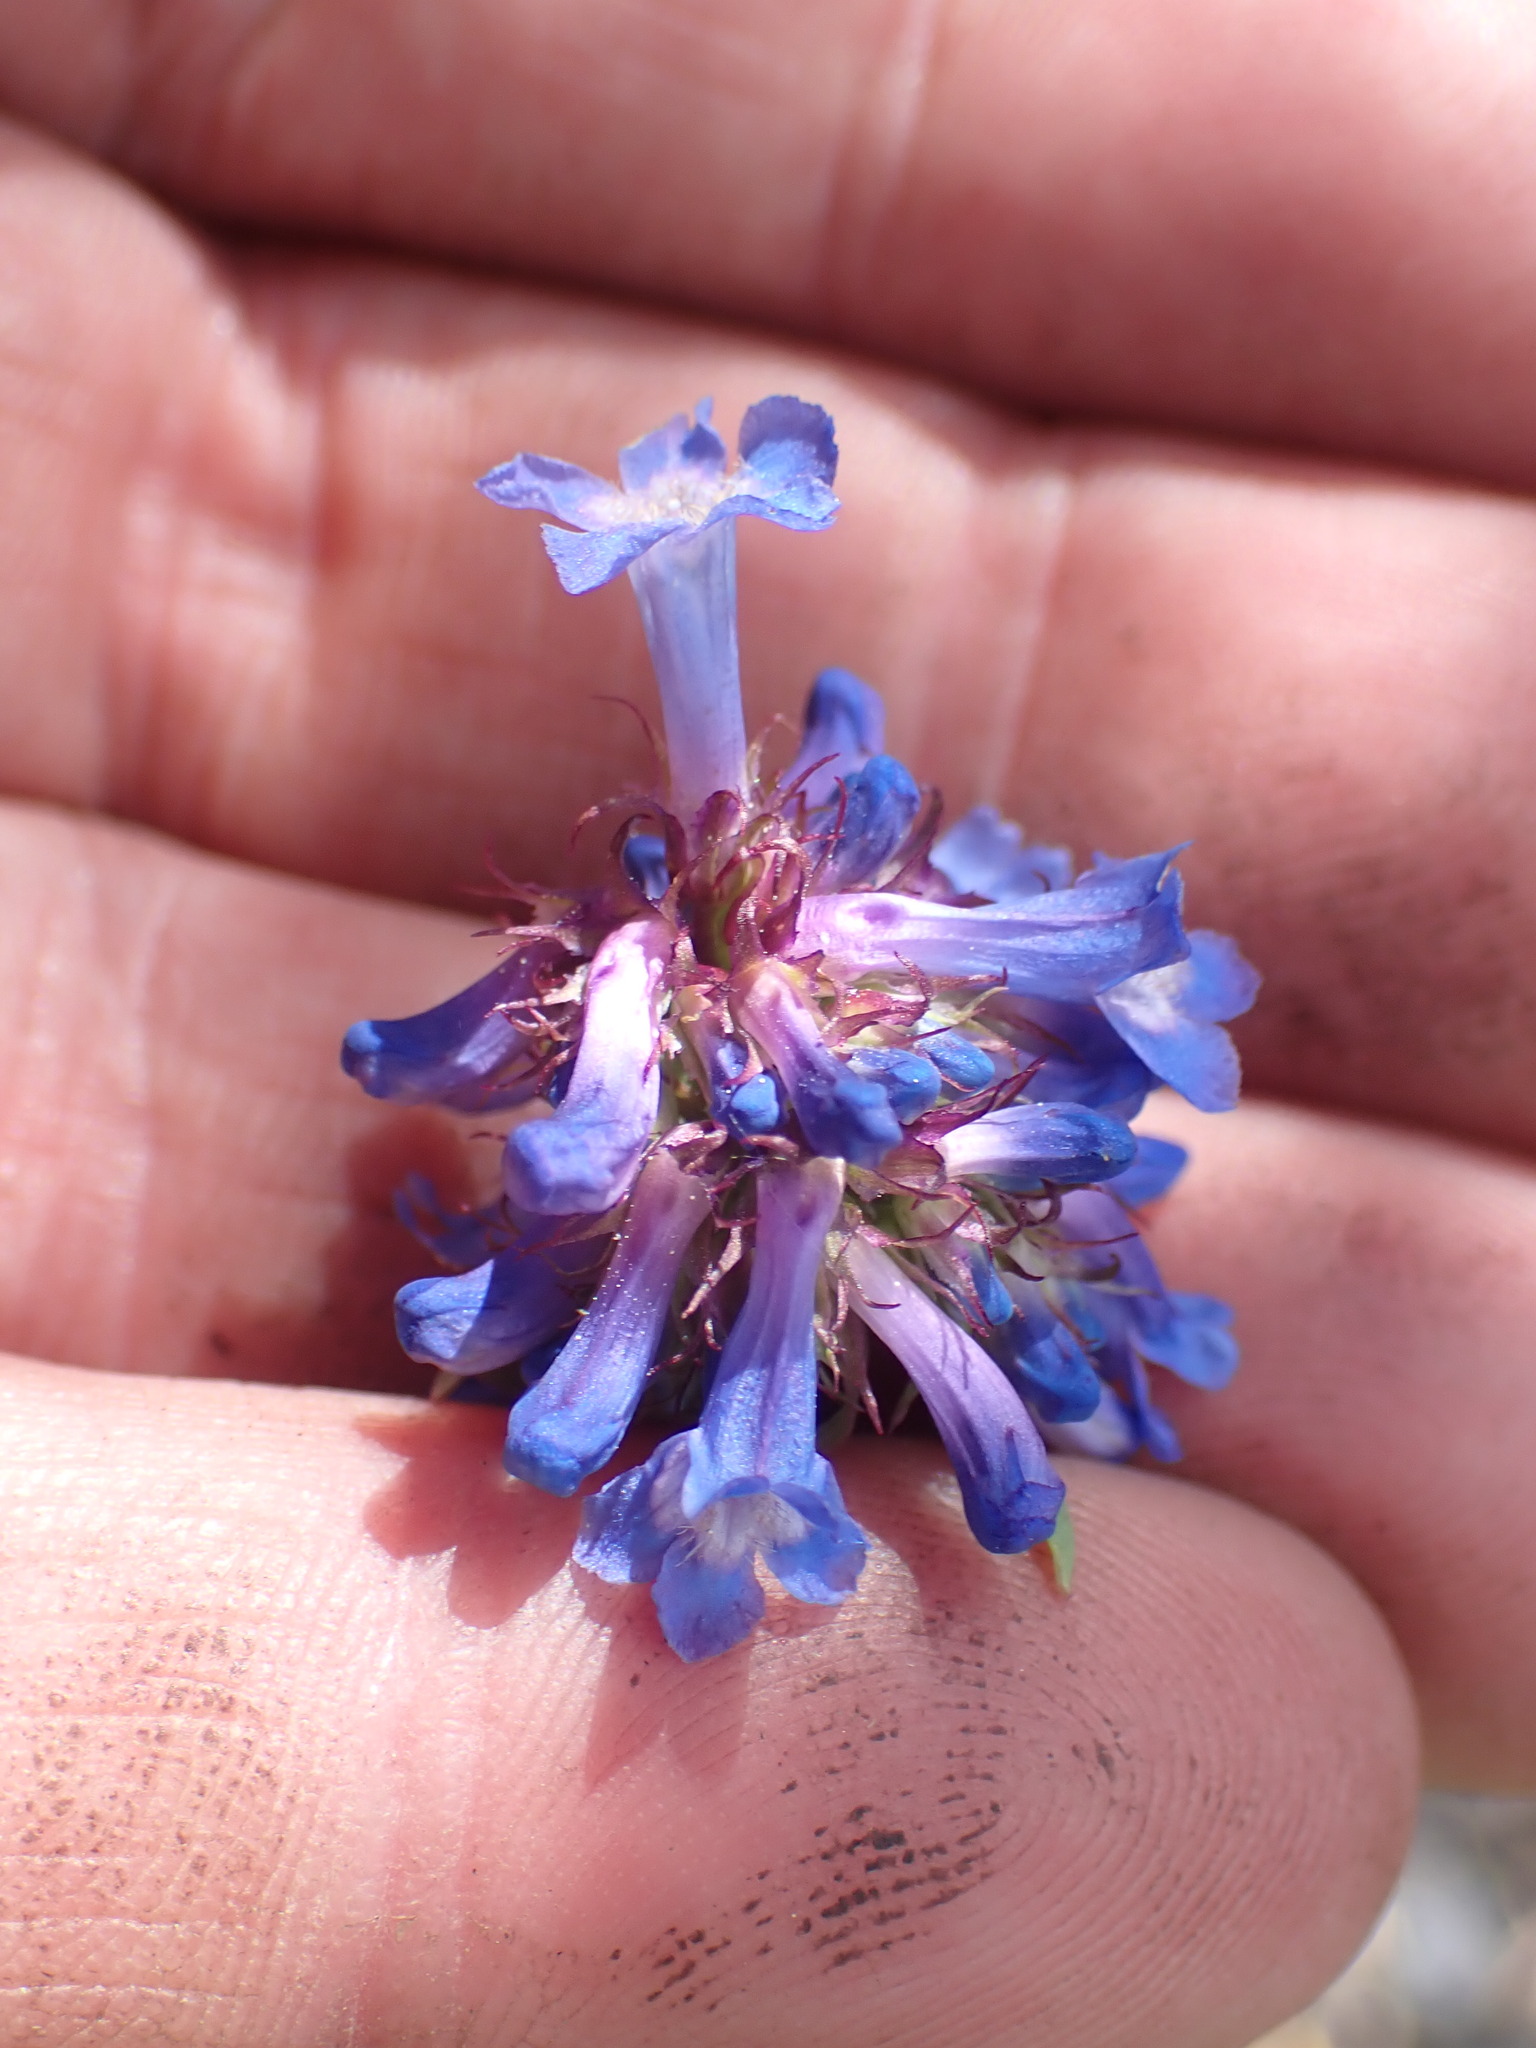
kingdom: Plantae
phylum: Tracheophyta
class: Magnoliopsida
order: Lamiales
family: Plantaginaceae
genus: Penstemon
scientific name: Penstemon procerus
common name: Small-flower penstemon
